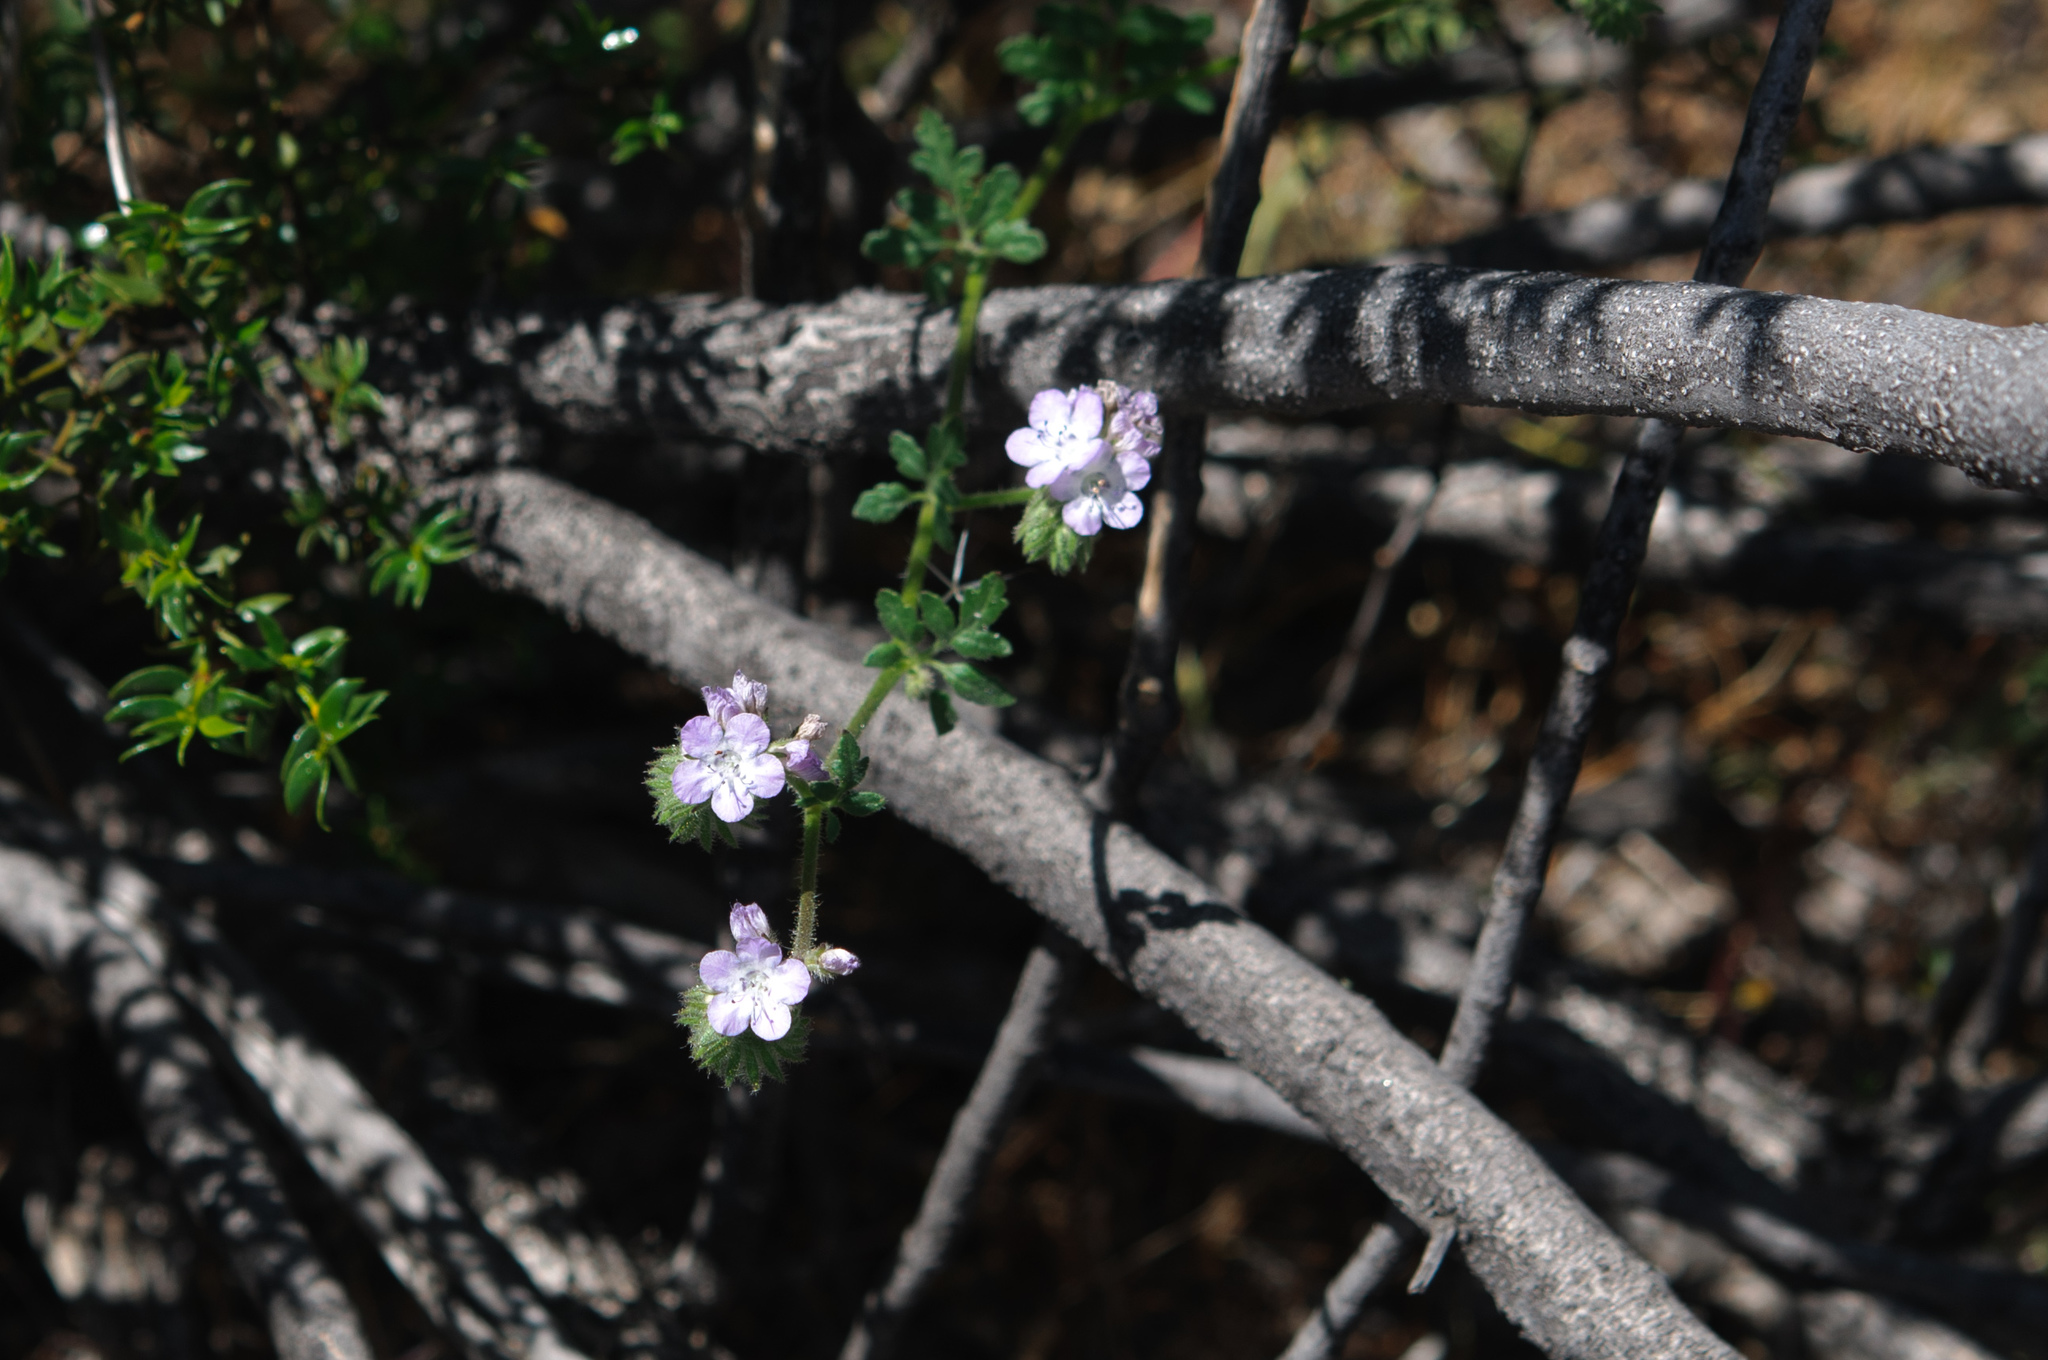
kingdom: Plantae
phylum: Tracheophyta
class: Magnoliopsida
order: Boraginales
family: Hydrophyllaceae
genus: Phacelia
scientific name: Phacelia distans
